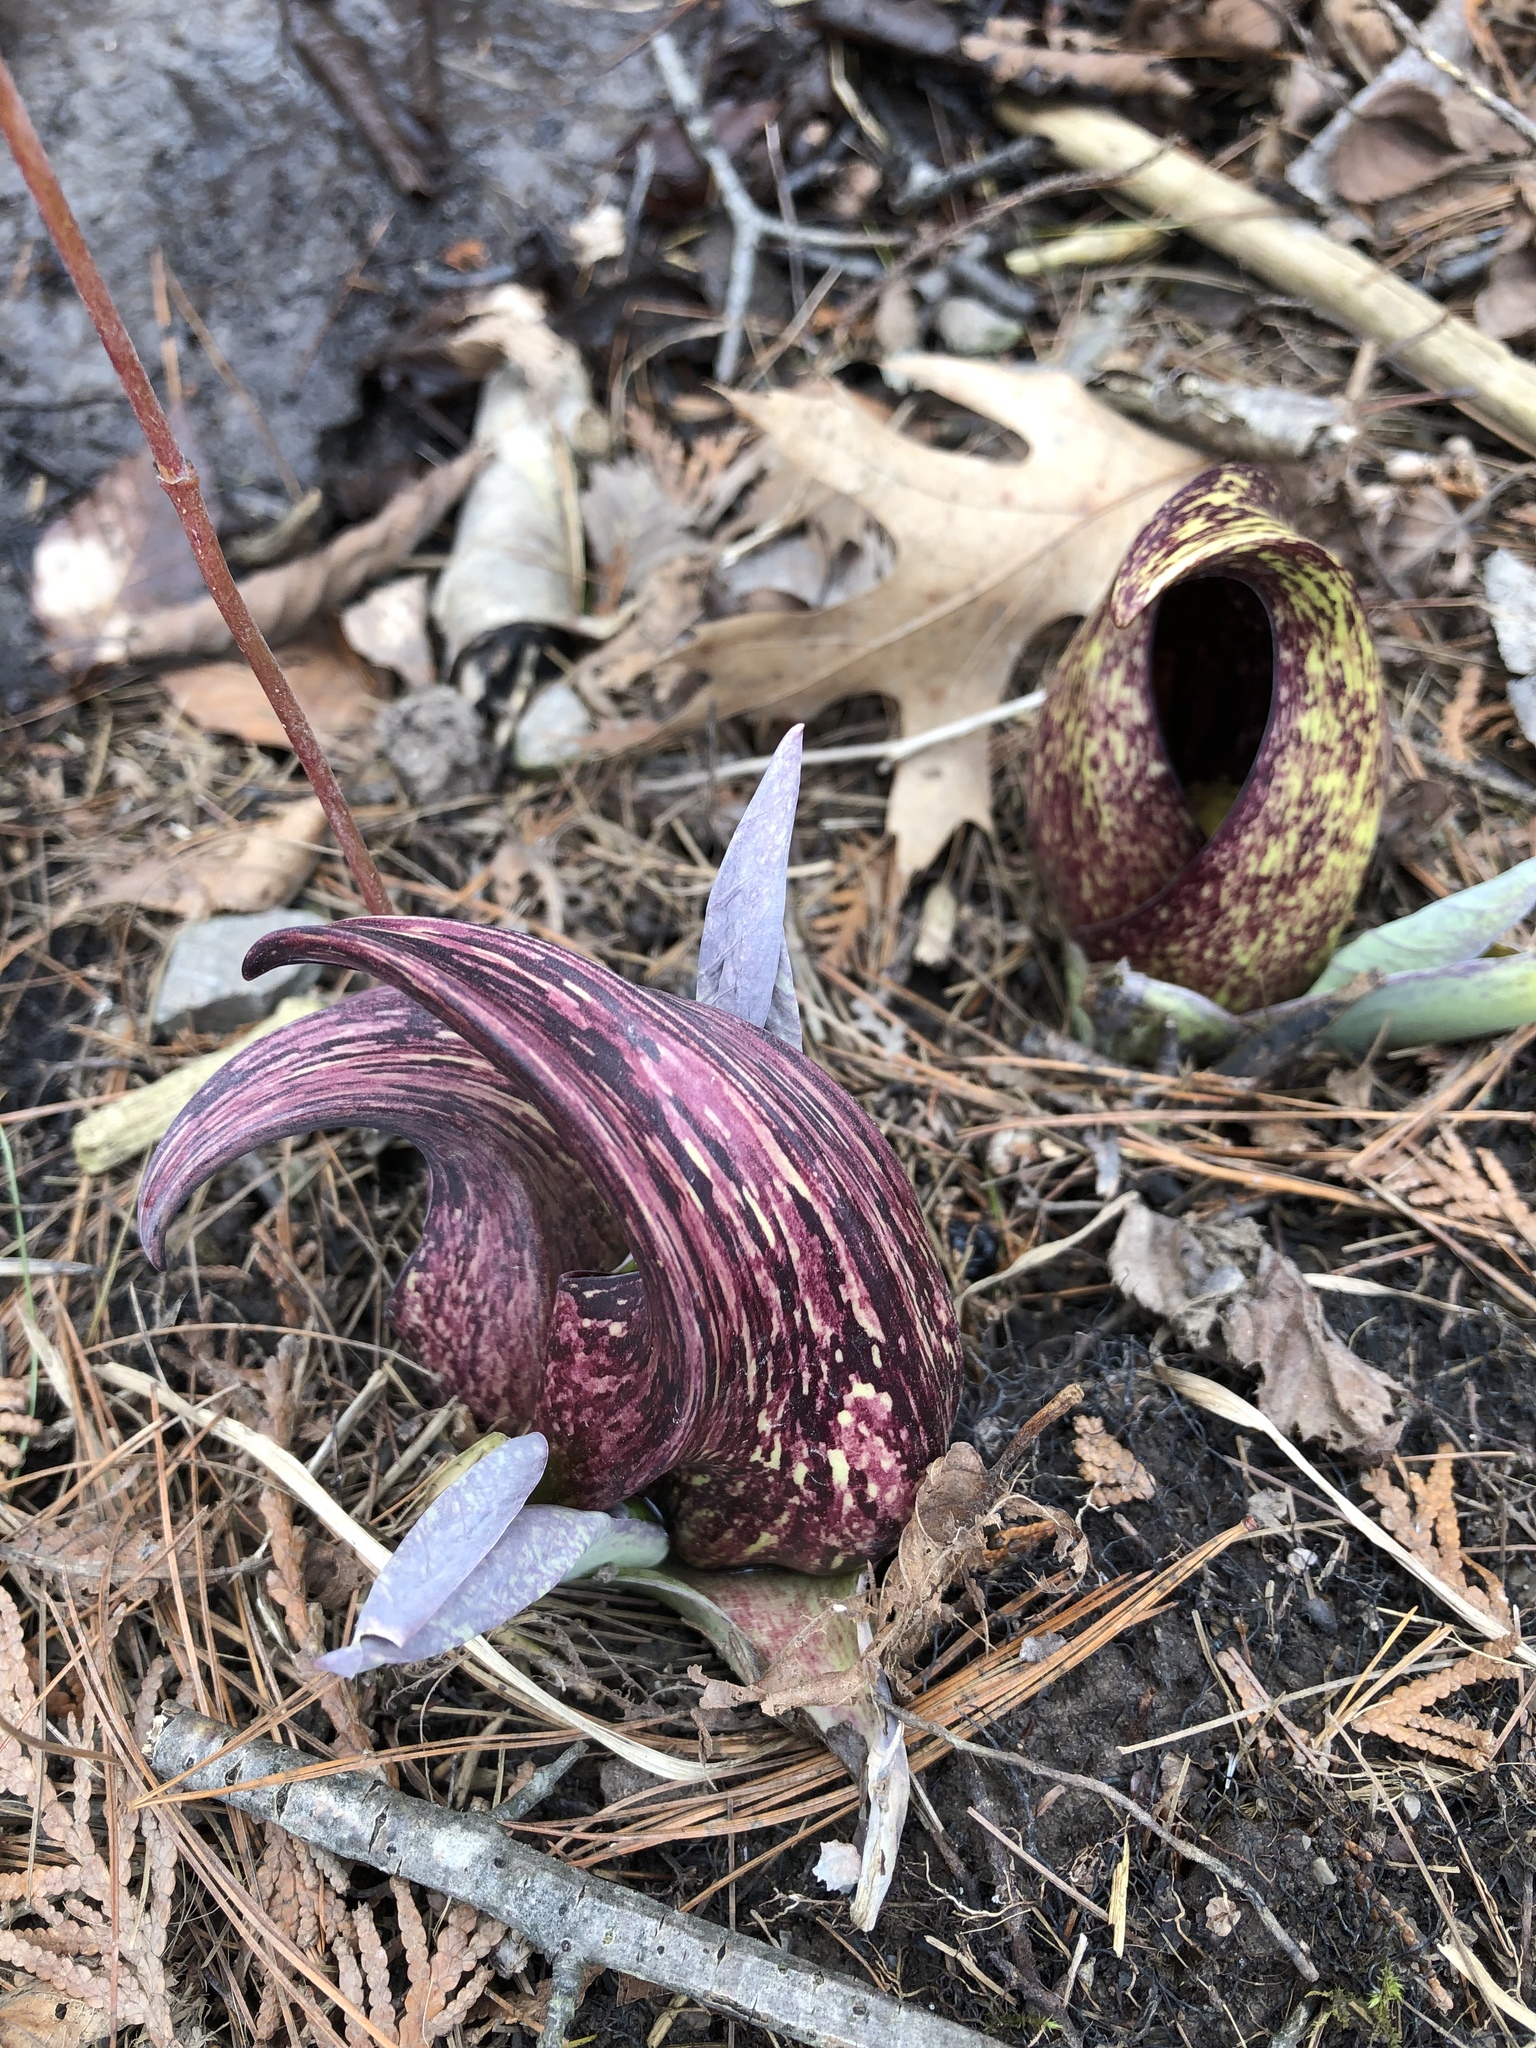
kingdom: Plantae
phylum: Tracheophyta
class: Liliopsida
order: Alismatales
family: Araceae
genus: Symplocarpus
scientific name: Symplocarpus foetidus
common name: Eastern skunk cabbage
